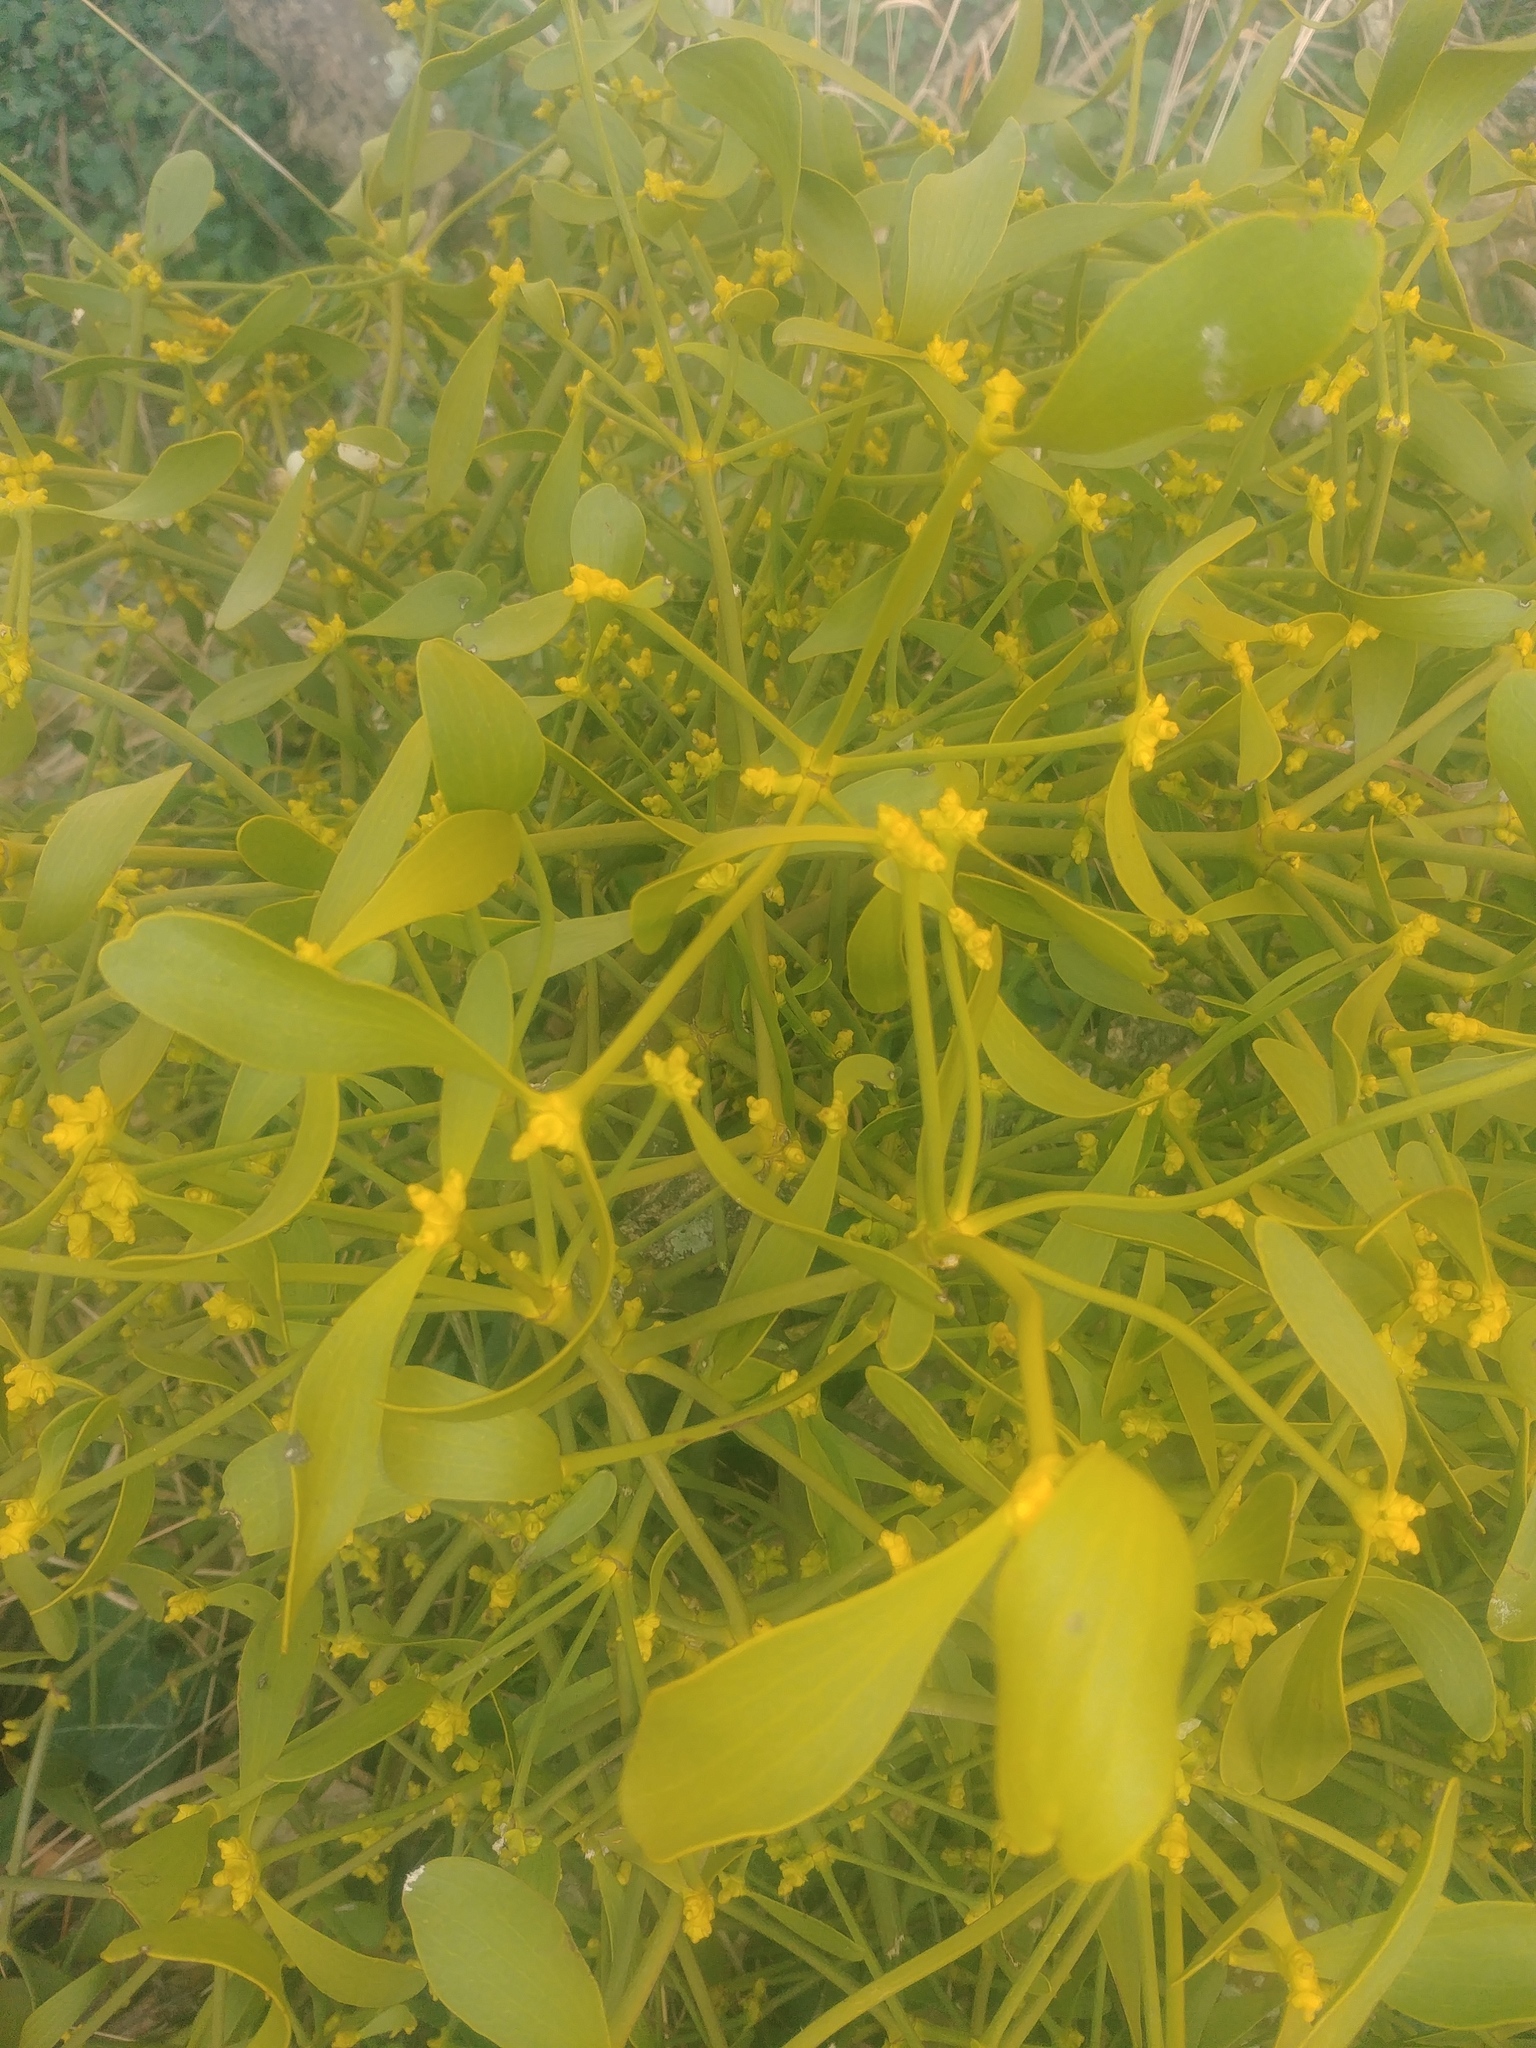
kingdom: Plantae
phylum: Tracheophyta
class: Magnoliopsida
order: Santalales
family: Viscaceae
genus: Viscum
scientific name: Viscum album
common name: Mistletoe
